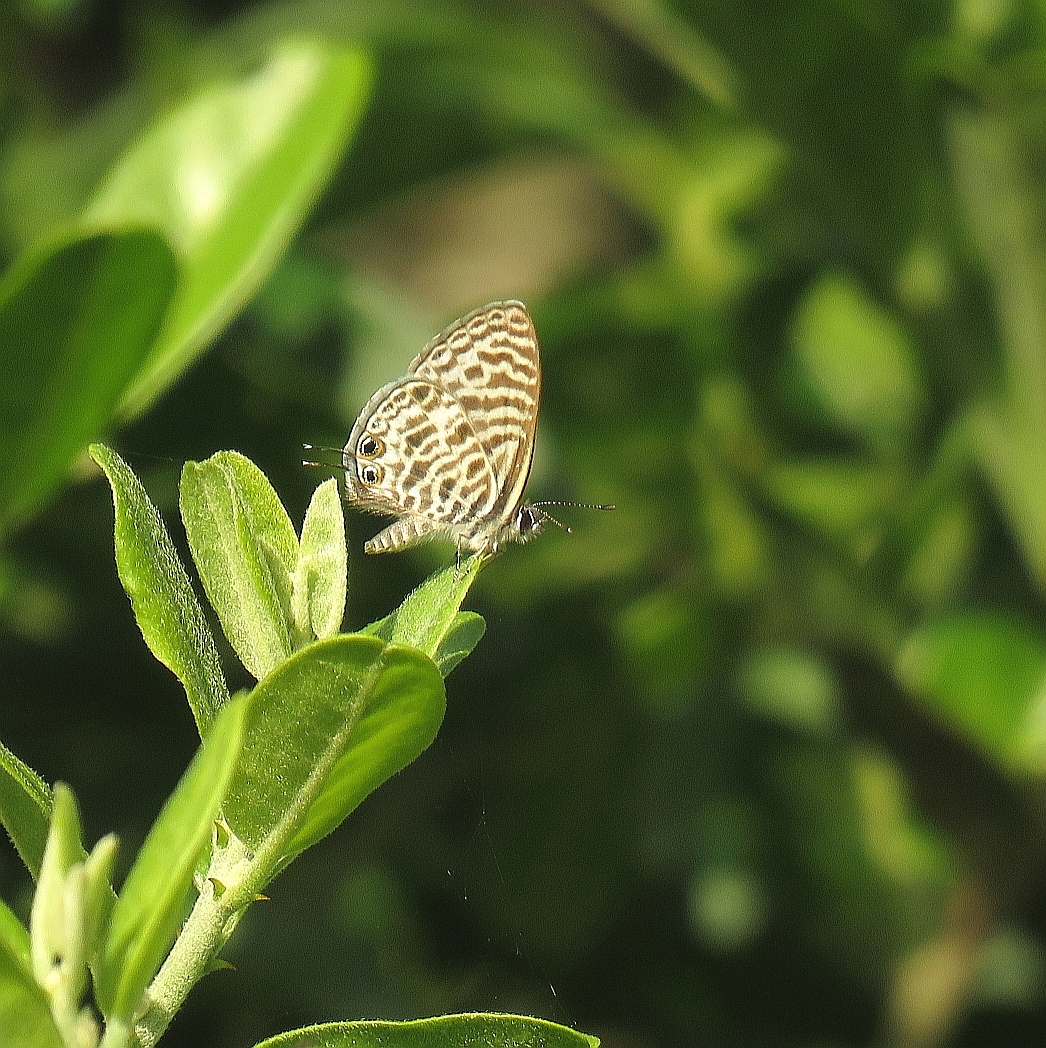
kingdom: Animalia
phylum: Arthropoda
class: Insecta
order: Lepidoptera
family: Lycaenidae
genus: Leptotes
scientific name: Leptotes
